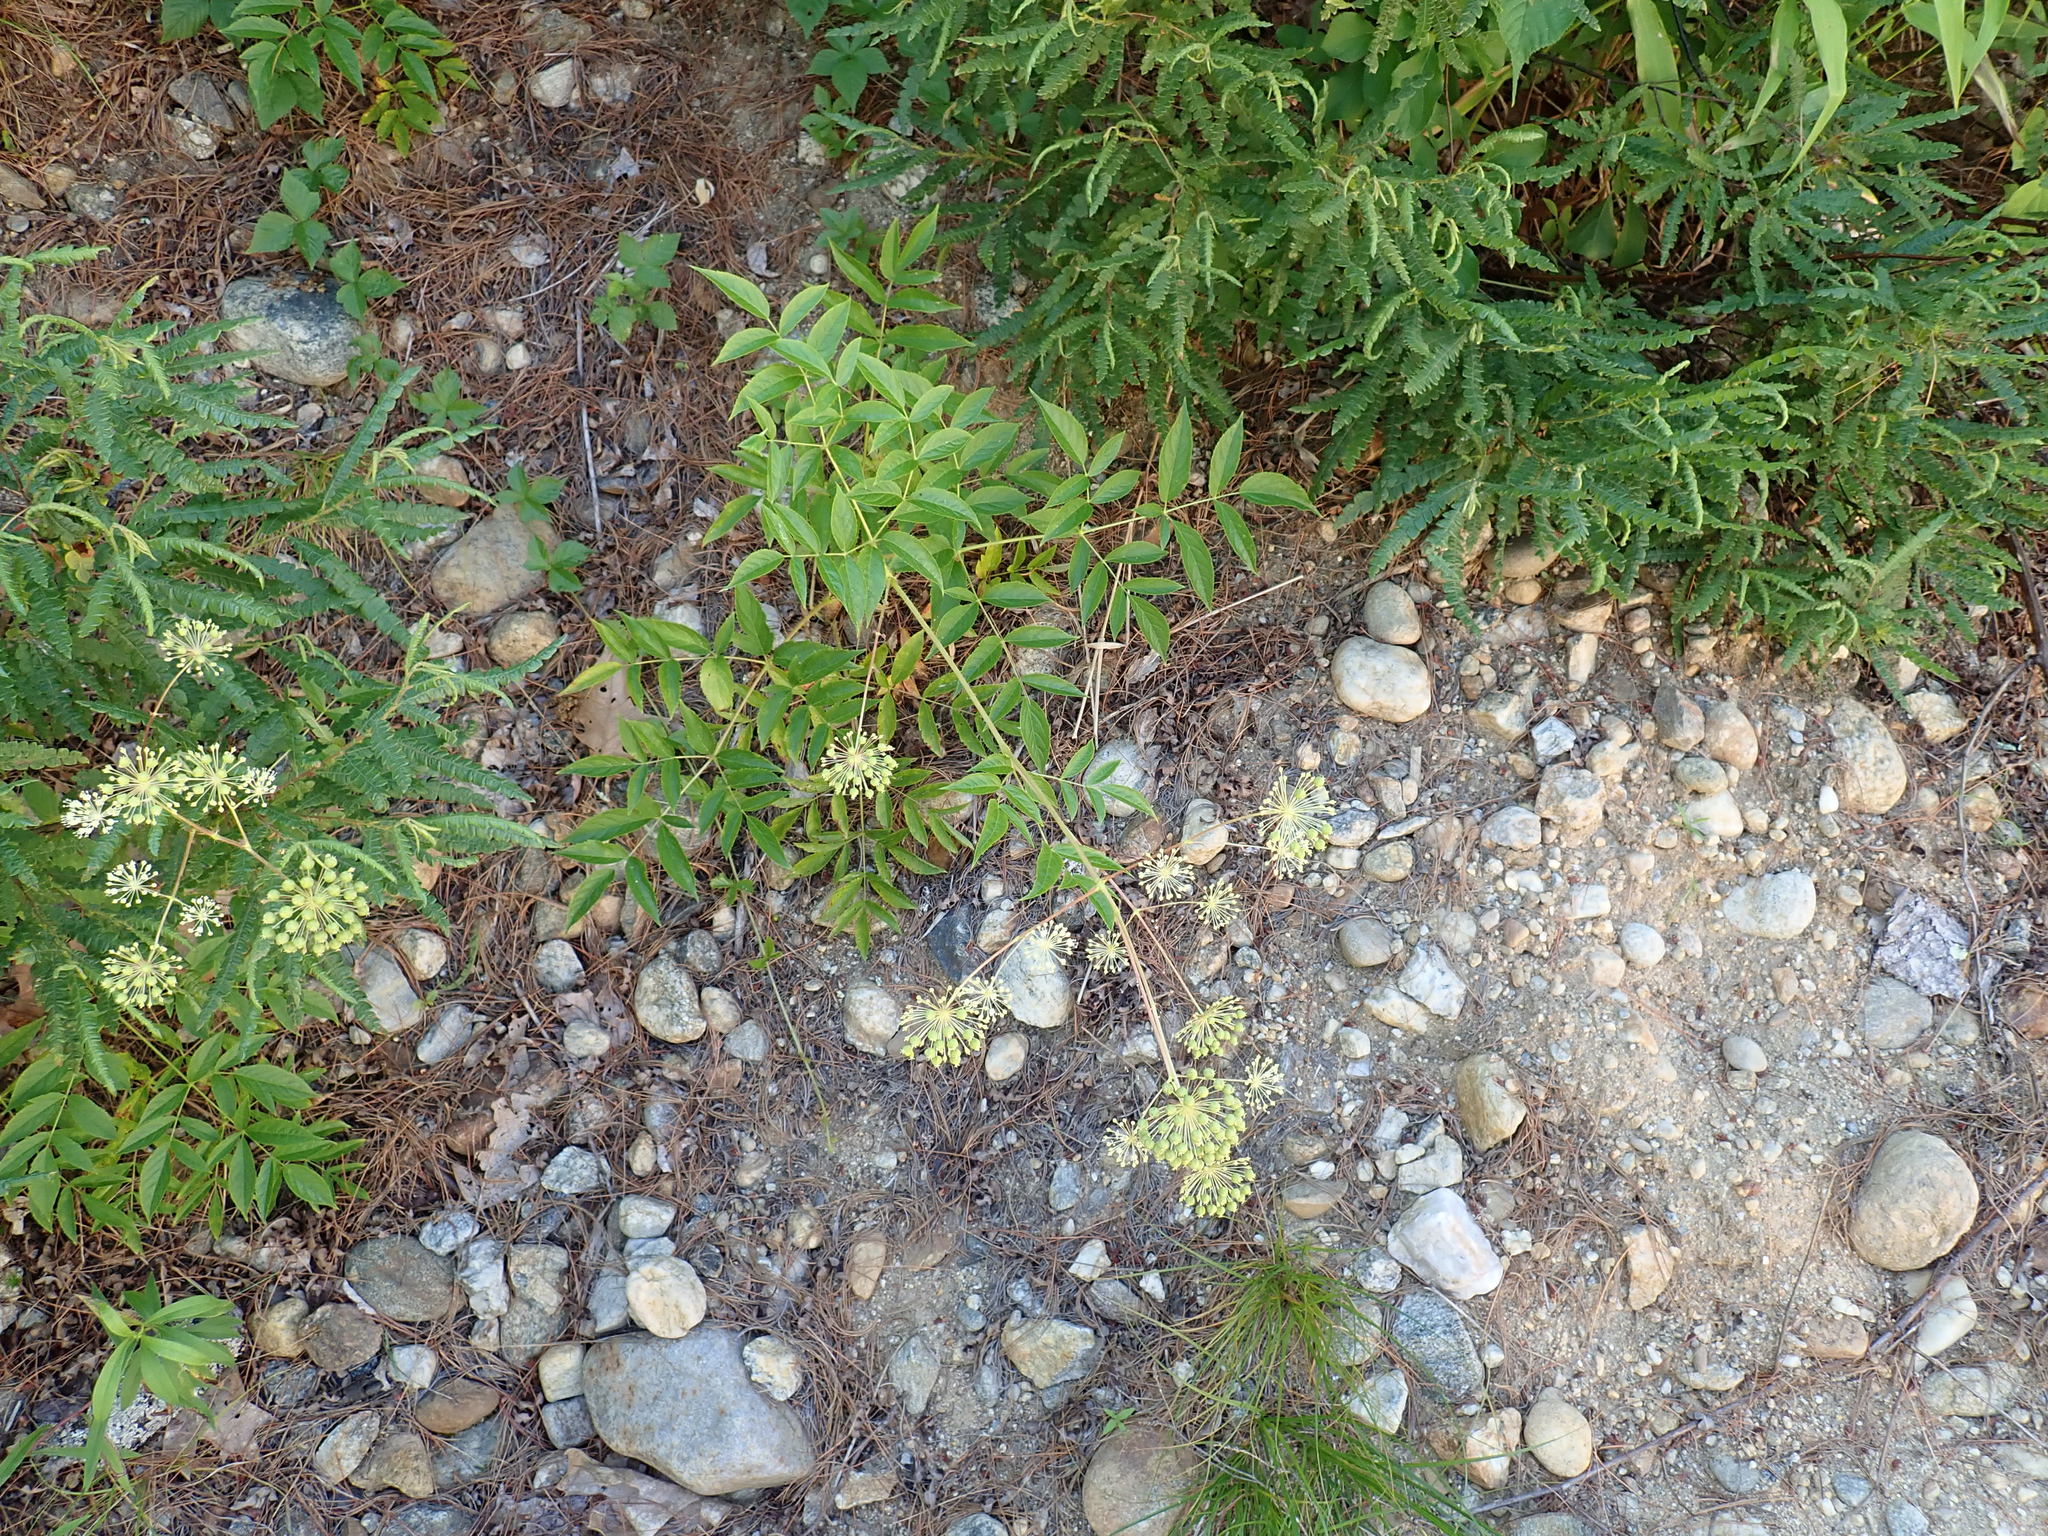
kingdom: Plantae
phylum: Tracheophyta
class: Magnoliopsida
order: Apiales
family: Araliaceae
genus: Aralia
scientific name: Aralia hispida
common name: Bristly sarsaparilla
